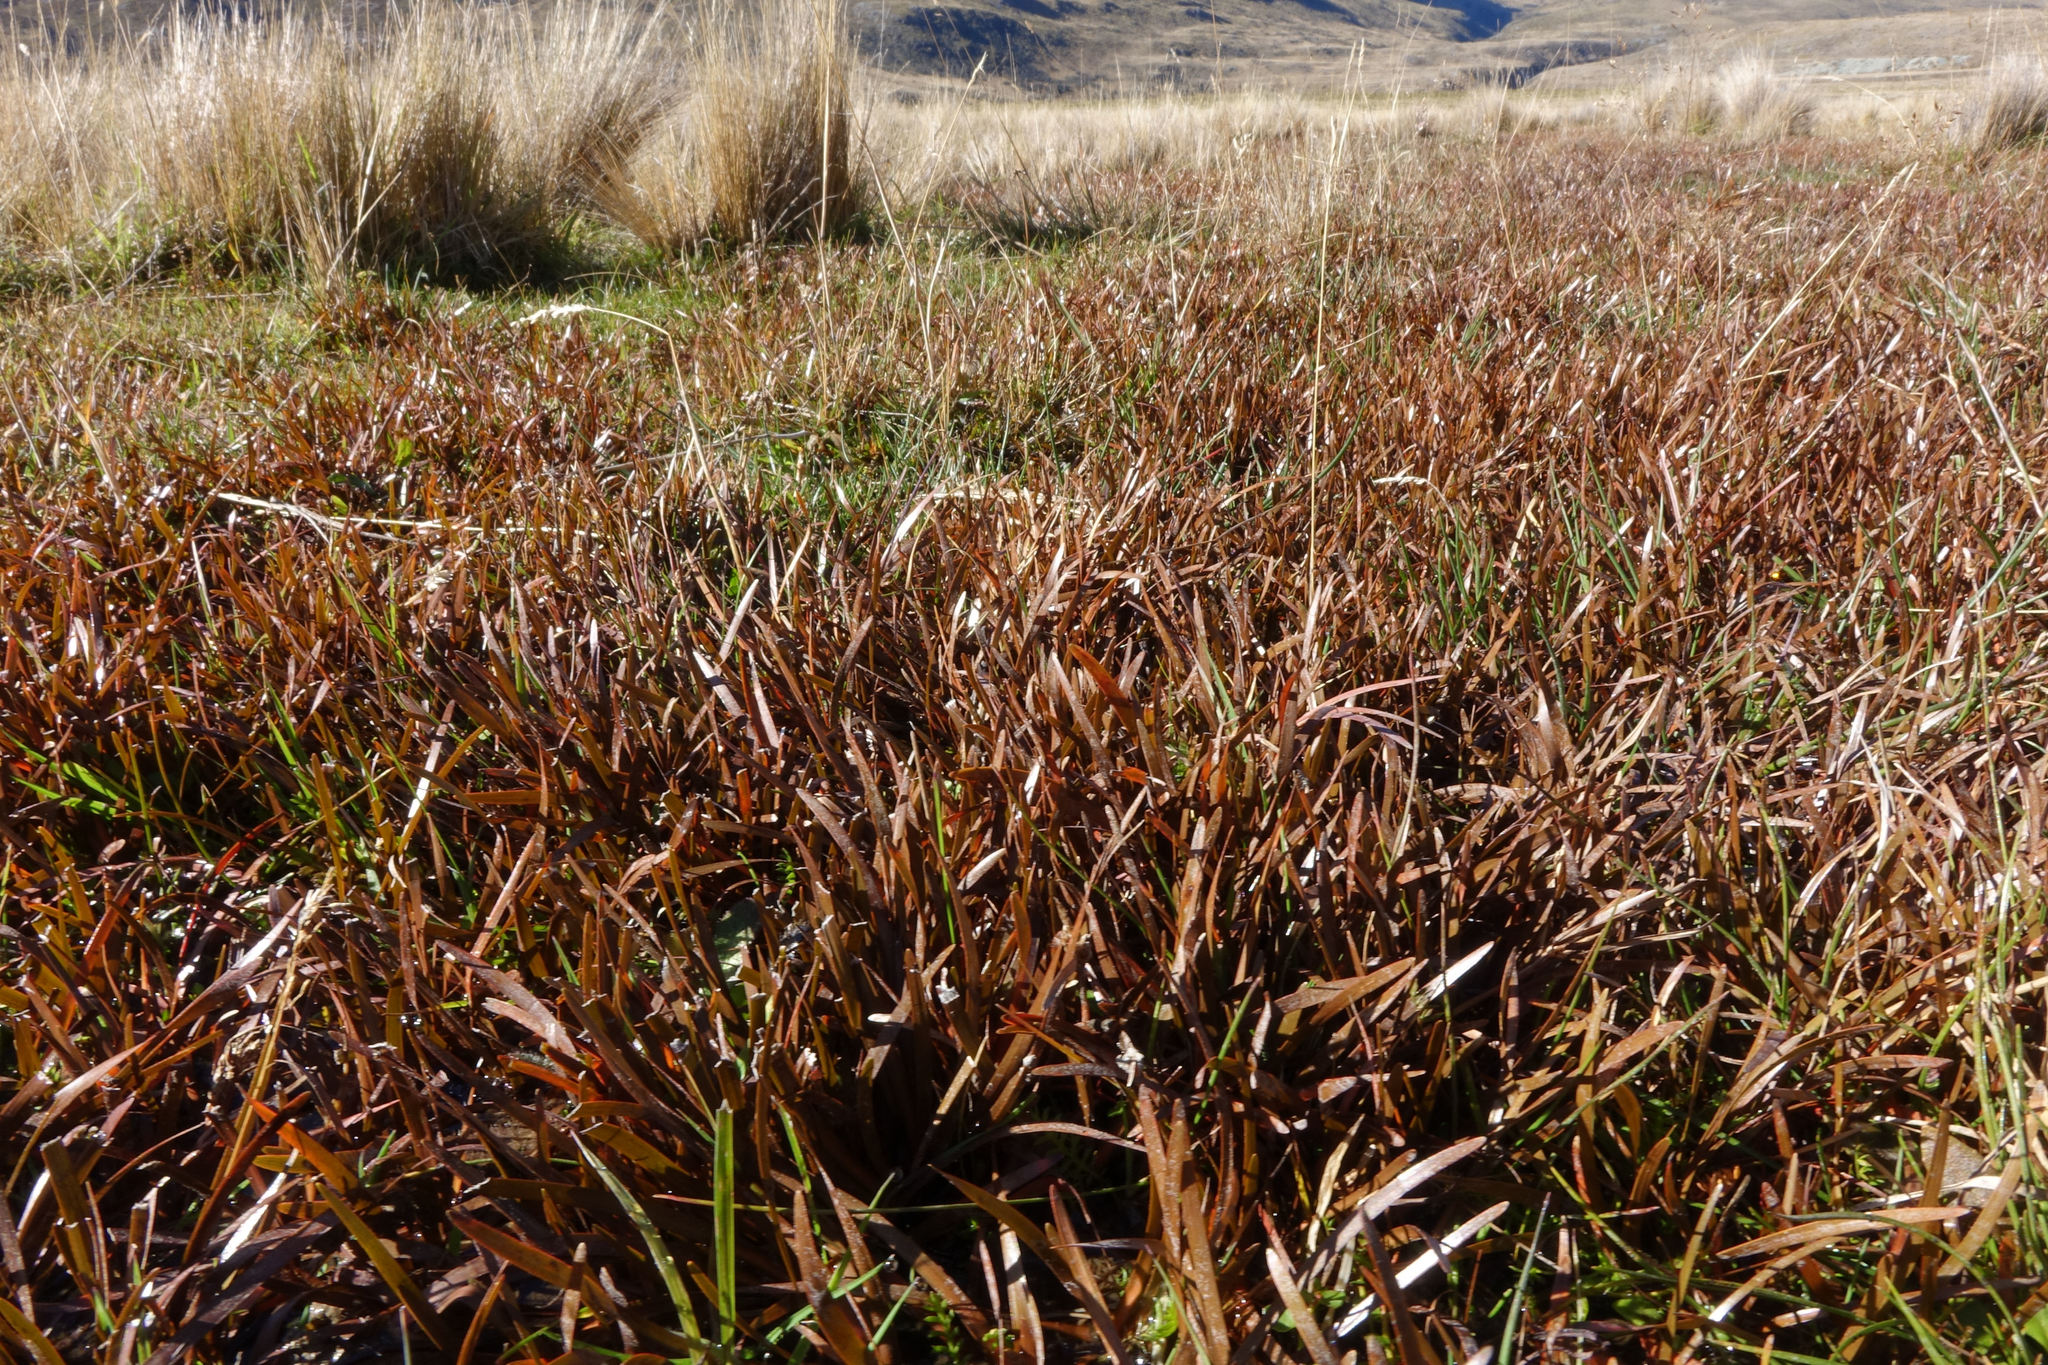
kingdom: Plantae
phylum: Tracheophyta
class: Liliopsida
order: Poales
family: Cyperaceae
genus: Carex
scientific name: Carex talbotii
